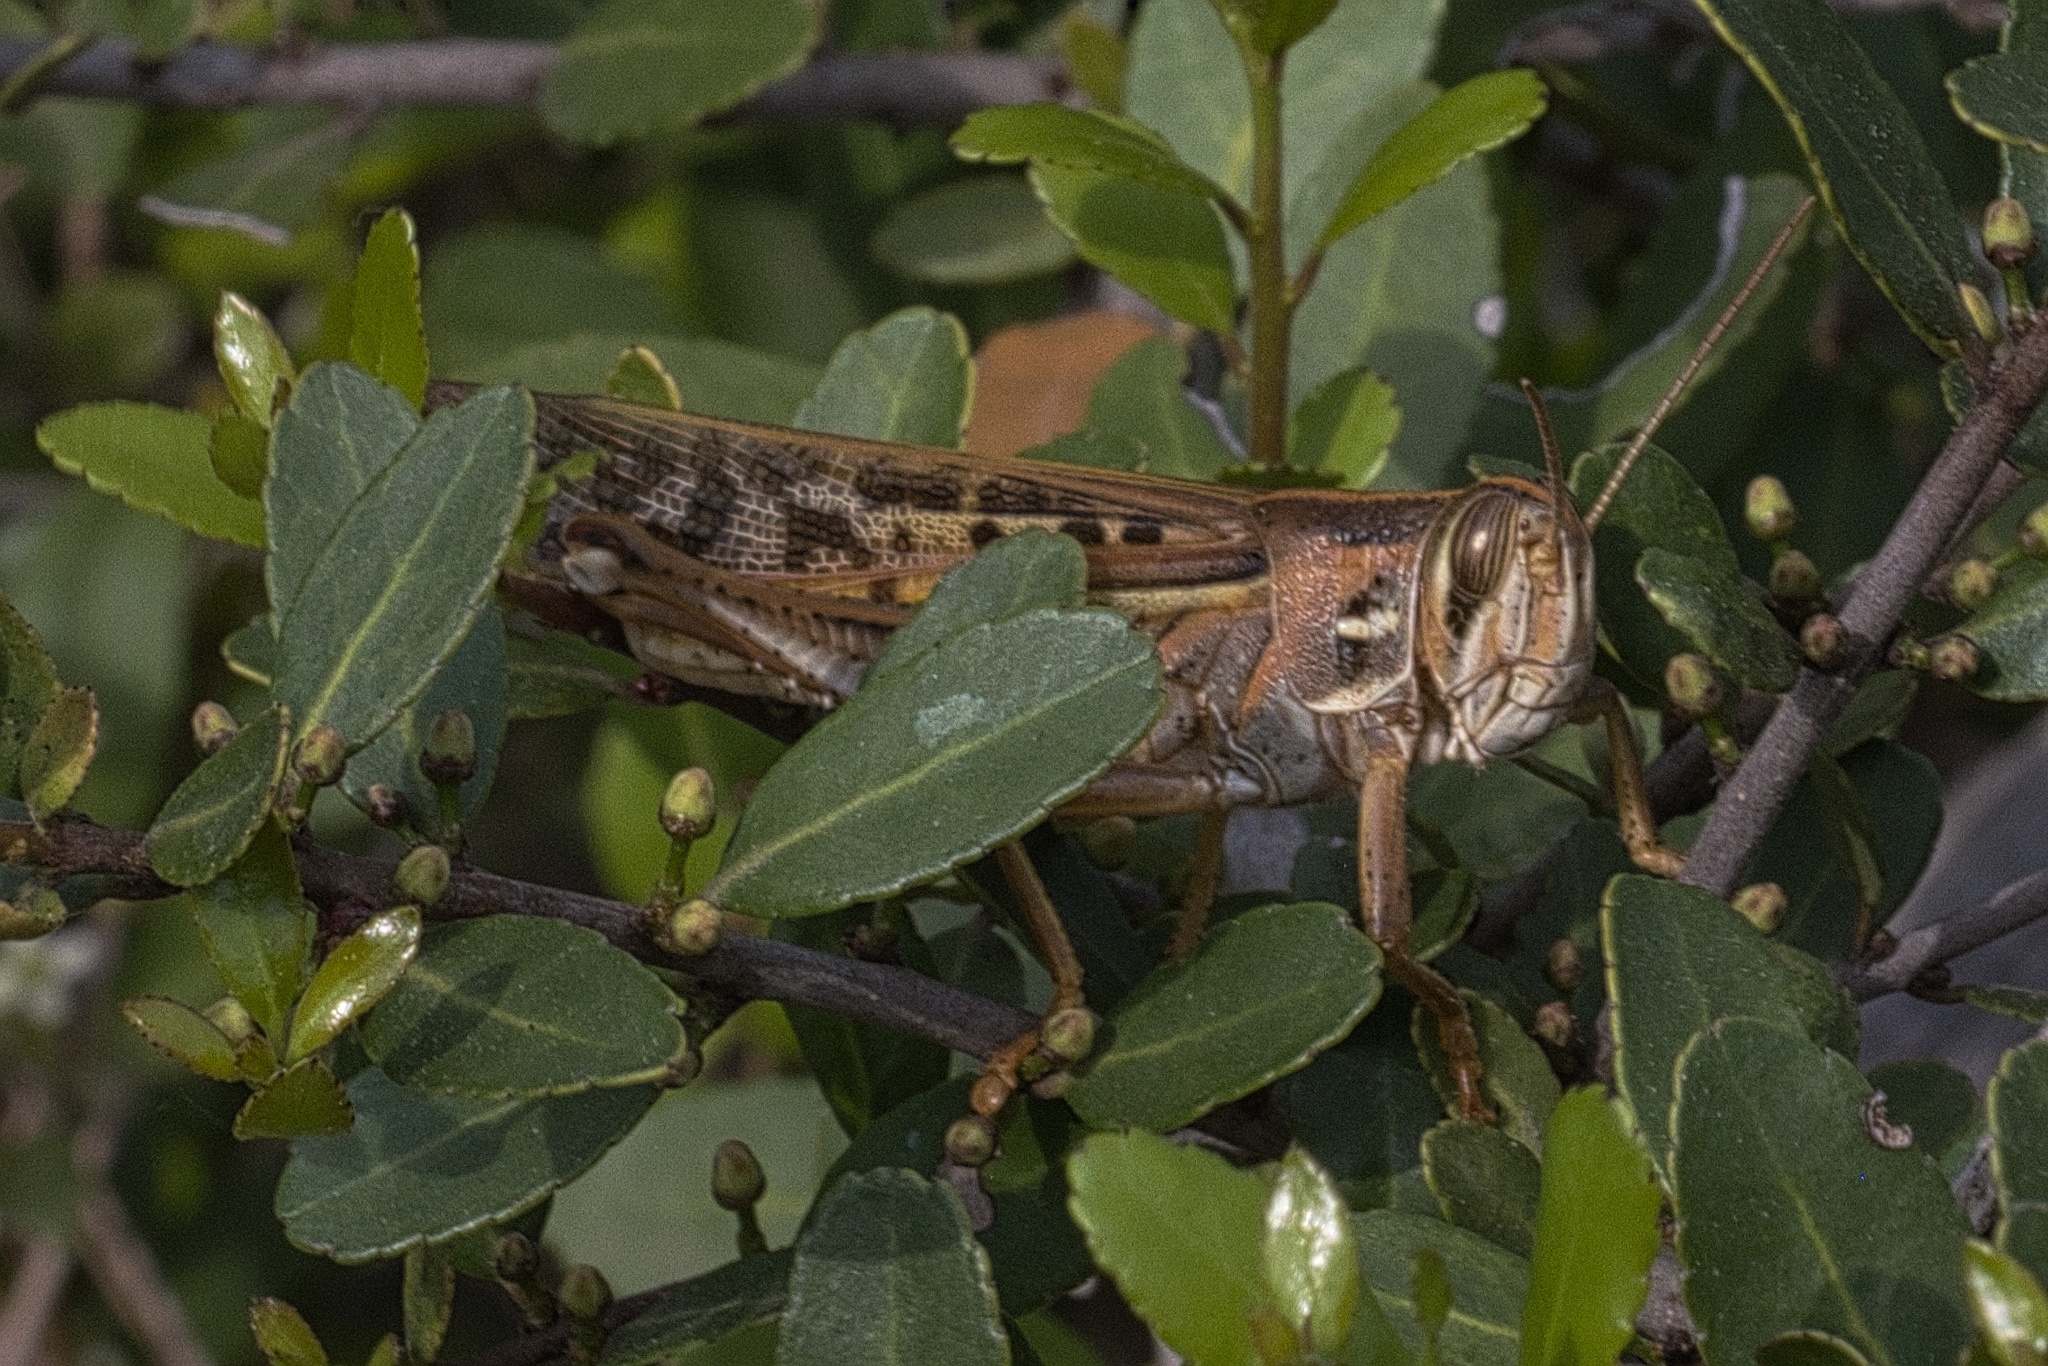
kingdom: Animalia
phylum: Arthropoda
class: Insecta
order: Orthoptera
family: Acrididae
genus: Schistocerca
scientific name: Schistocerca americana
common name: American bird locust
